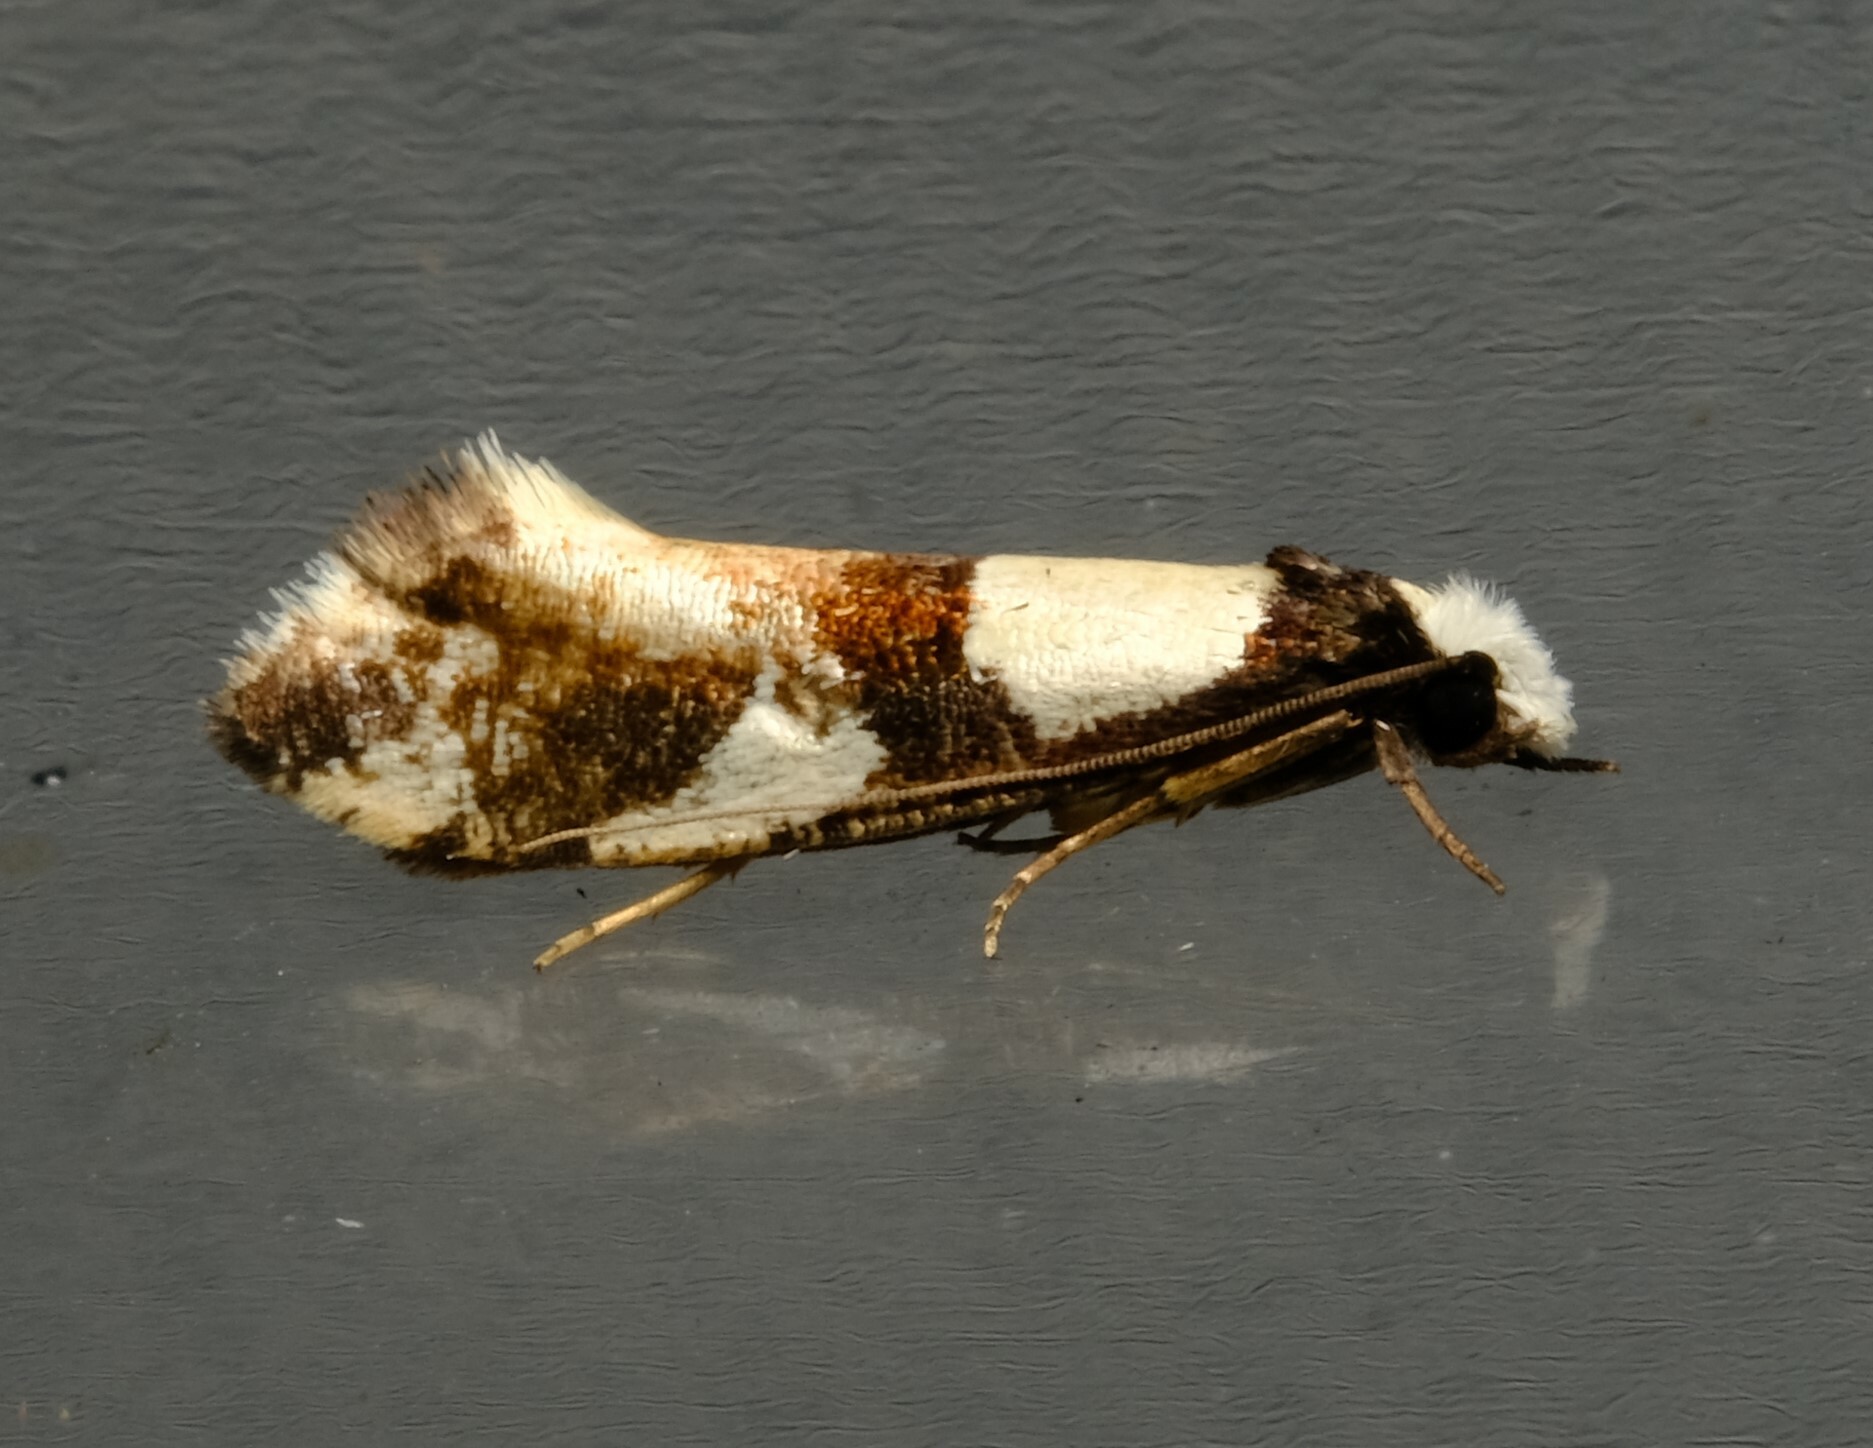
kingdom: Animalia
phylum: Arthropoda
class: Insecta
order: Lepidoptera
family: Tineidae
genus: Monopis
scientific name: Monopis icterogastra
